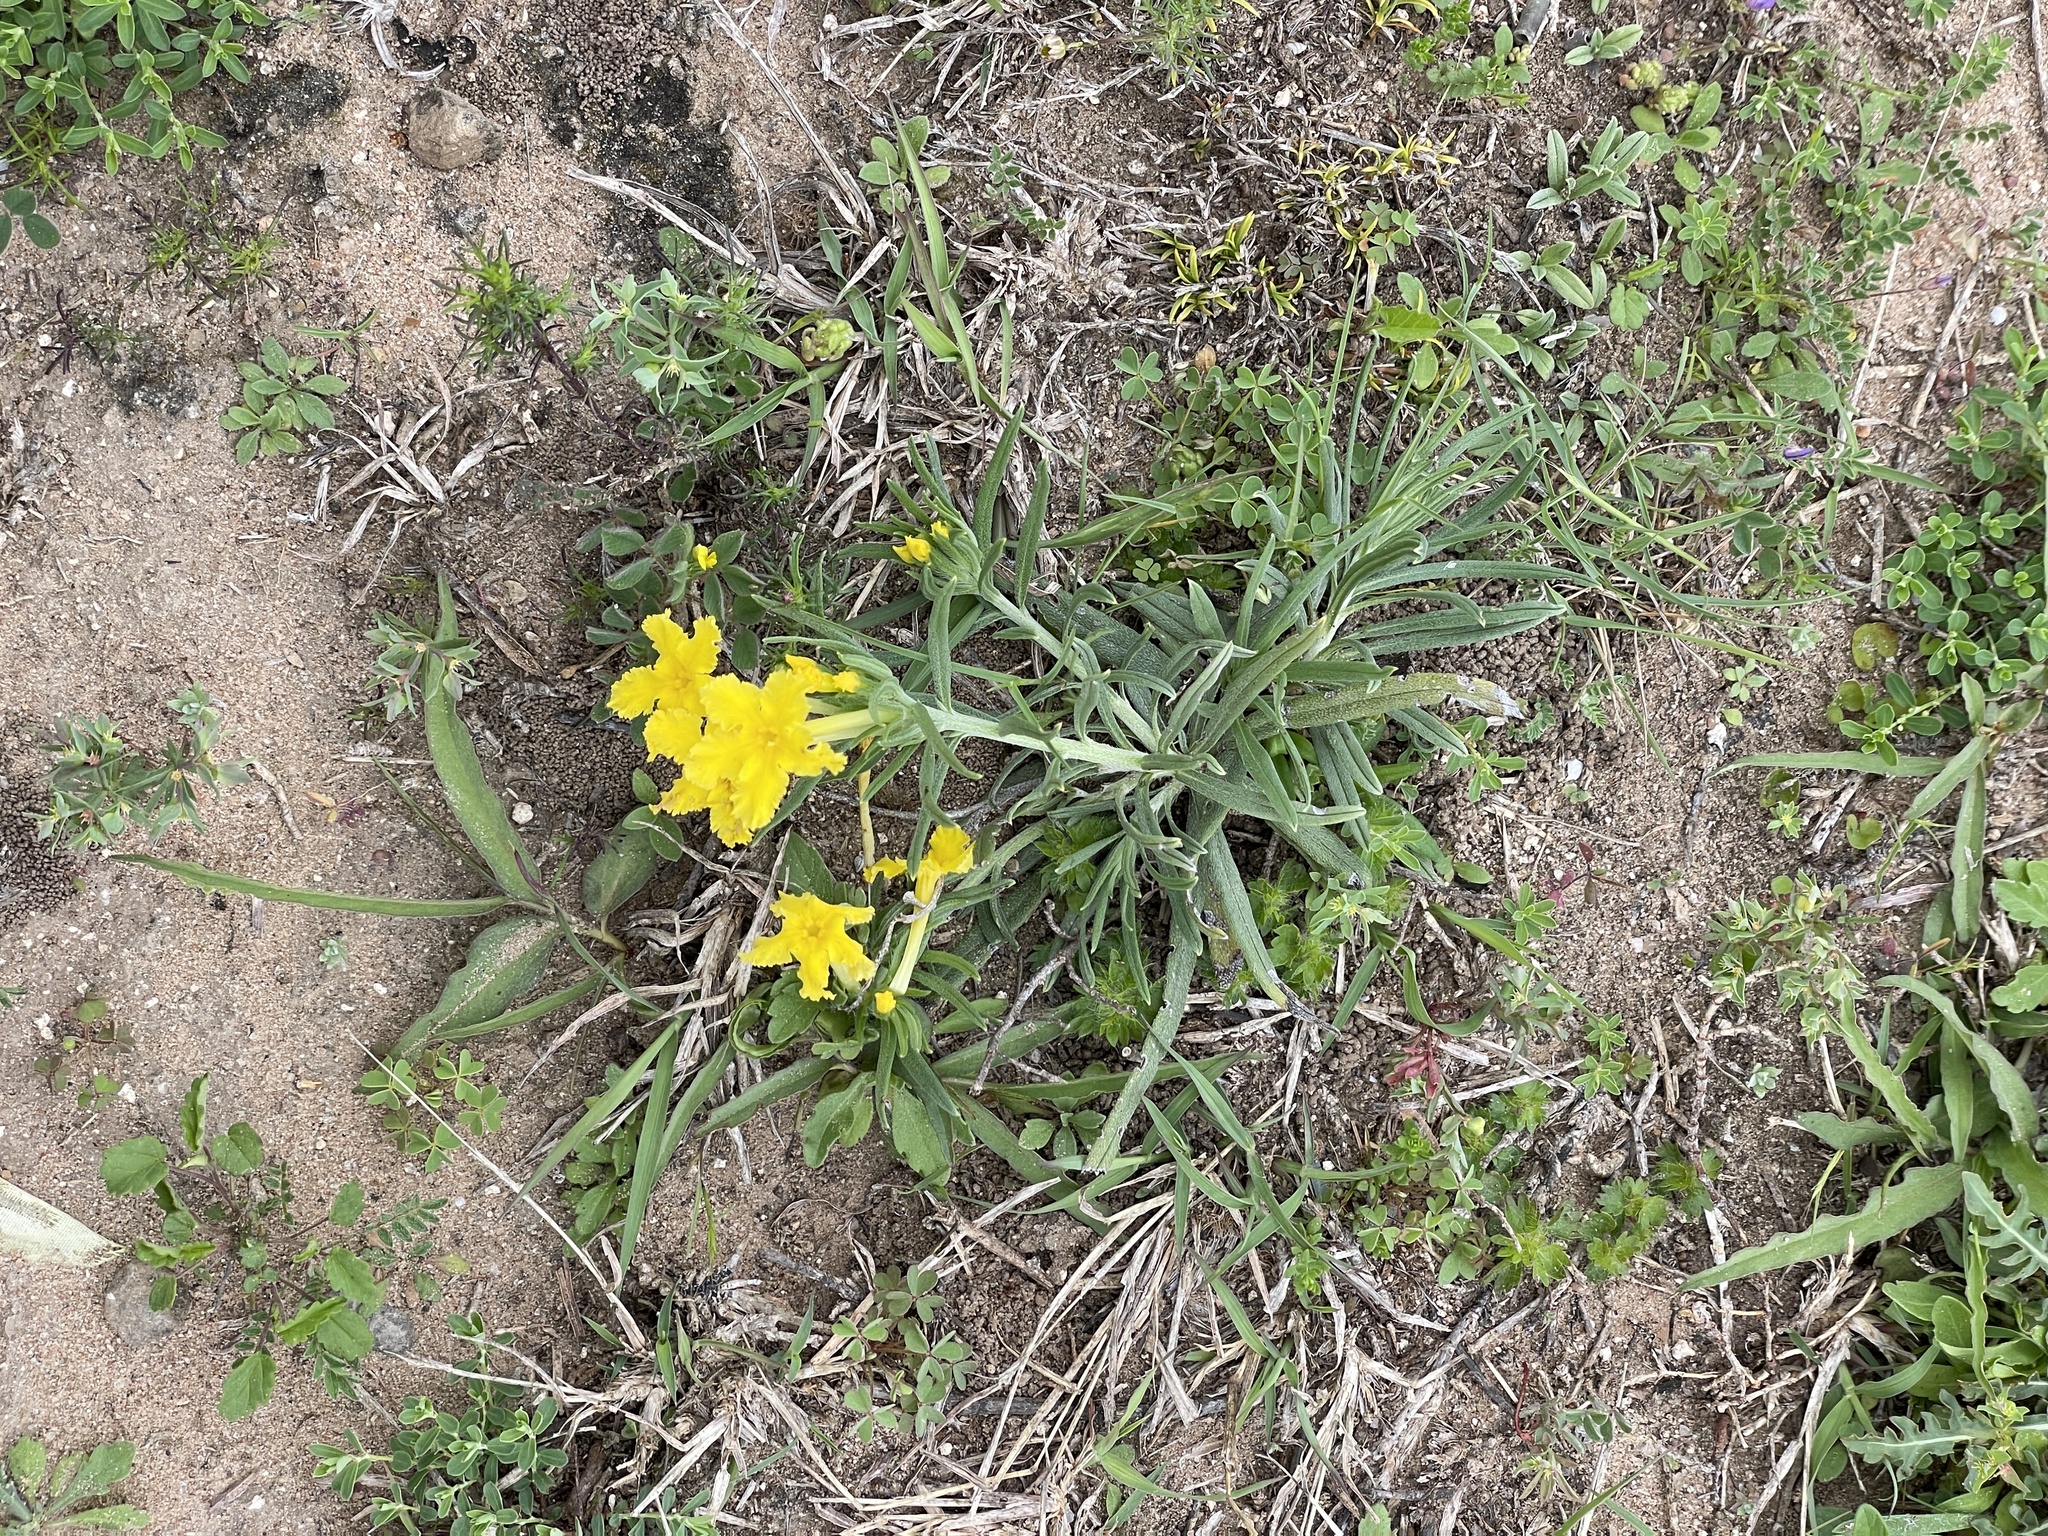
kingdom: Plantae
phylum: Tracheophyta
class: Magnoliopsida
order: Boraginales
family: Boraginaceae
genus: Lithospermum
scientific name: Lithospermum incisum
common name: Fringed gromwell
